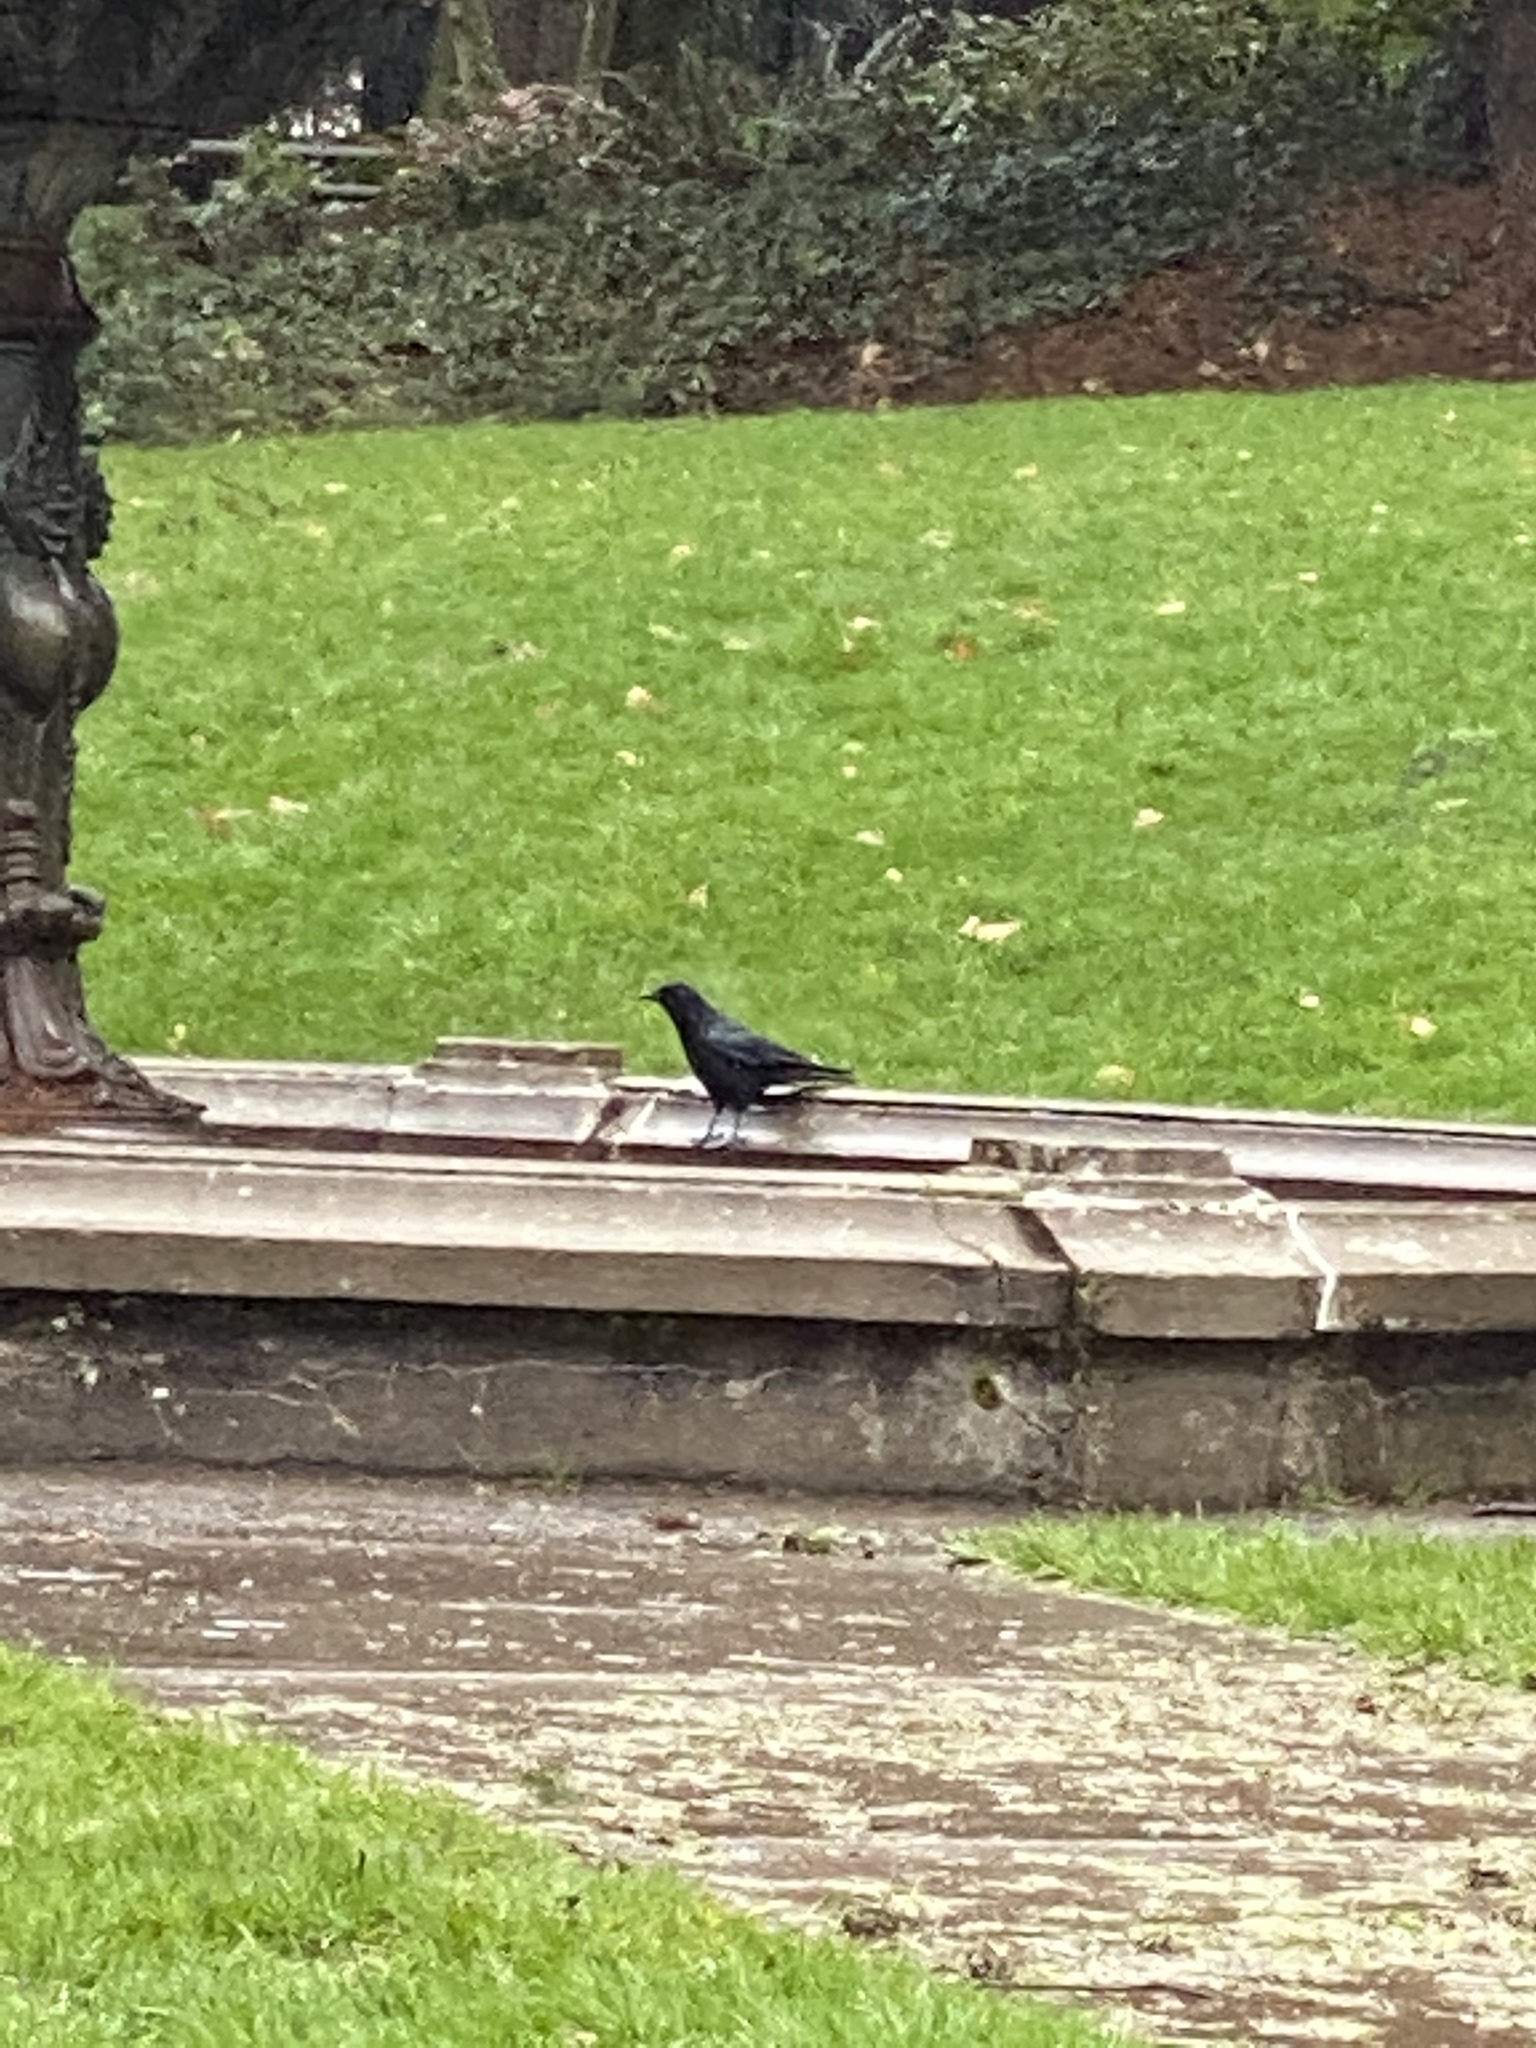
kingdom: Animalia
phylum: Chordata
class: Aves
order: Passeriformes
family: Corvidae
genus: Corvus
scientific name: Corvus brachyrhynchos
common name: American crow
